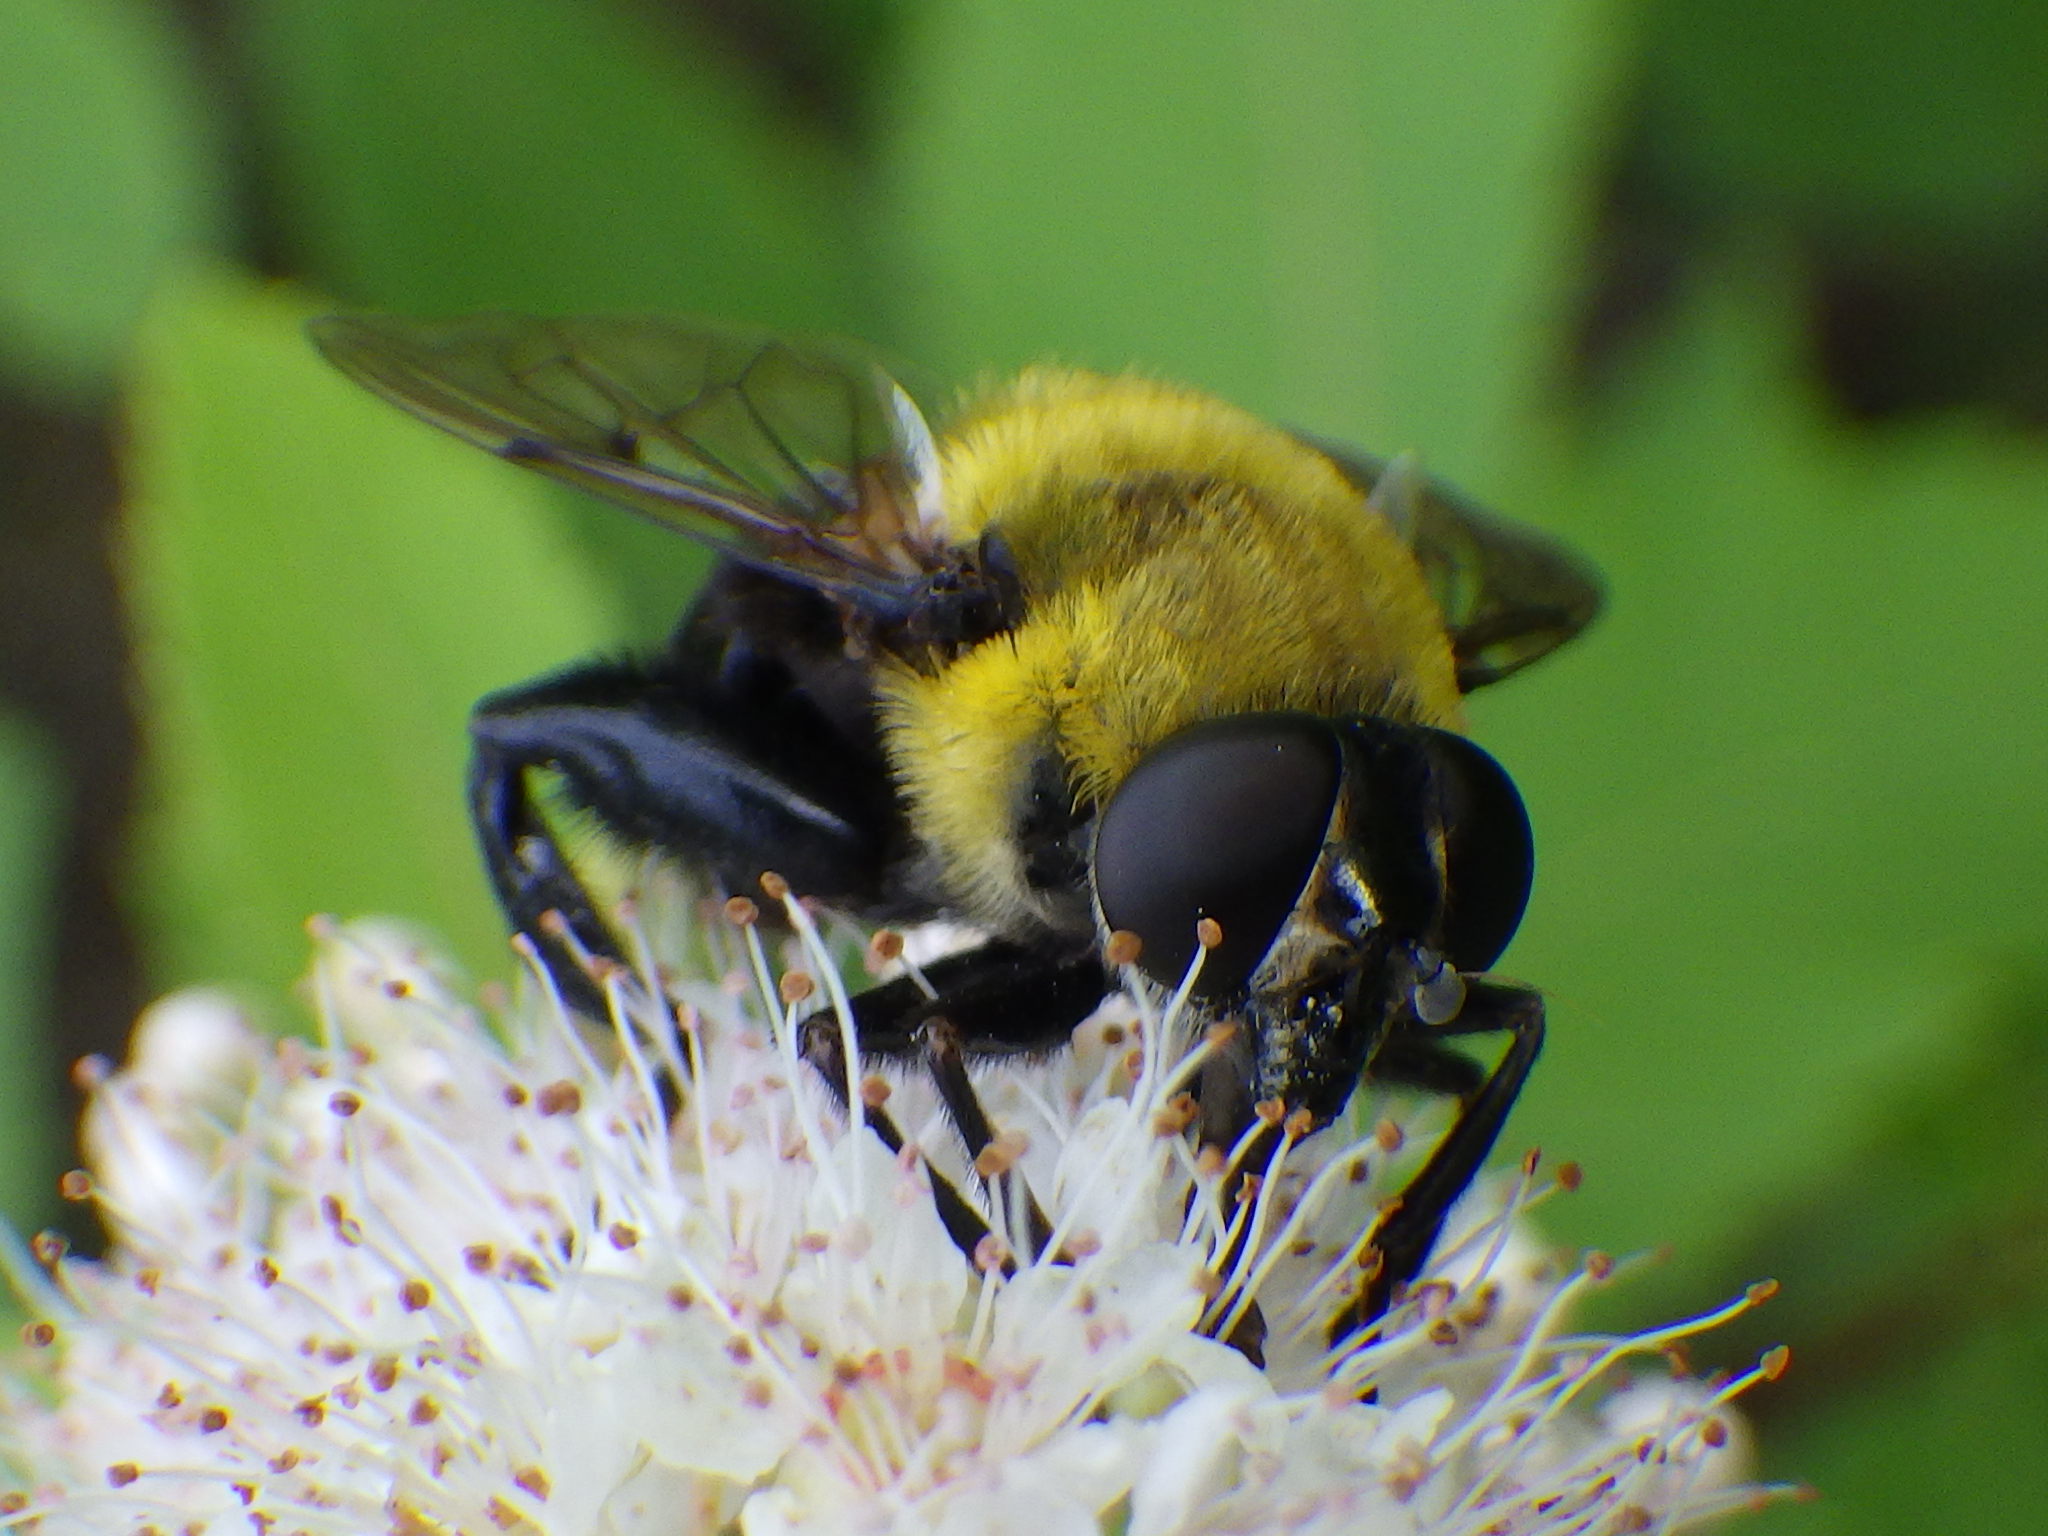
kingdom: Animalia
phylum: Arthropoda
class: Insecta
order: Diptera
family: Syrphidae
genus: Imatisma
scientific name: Imatisma bautias
